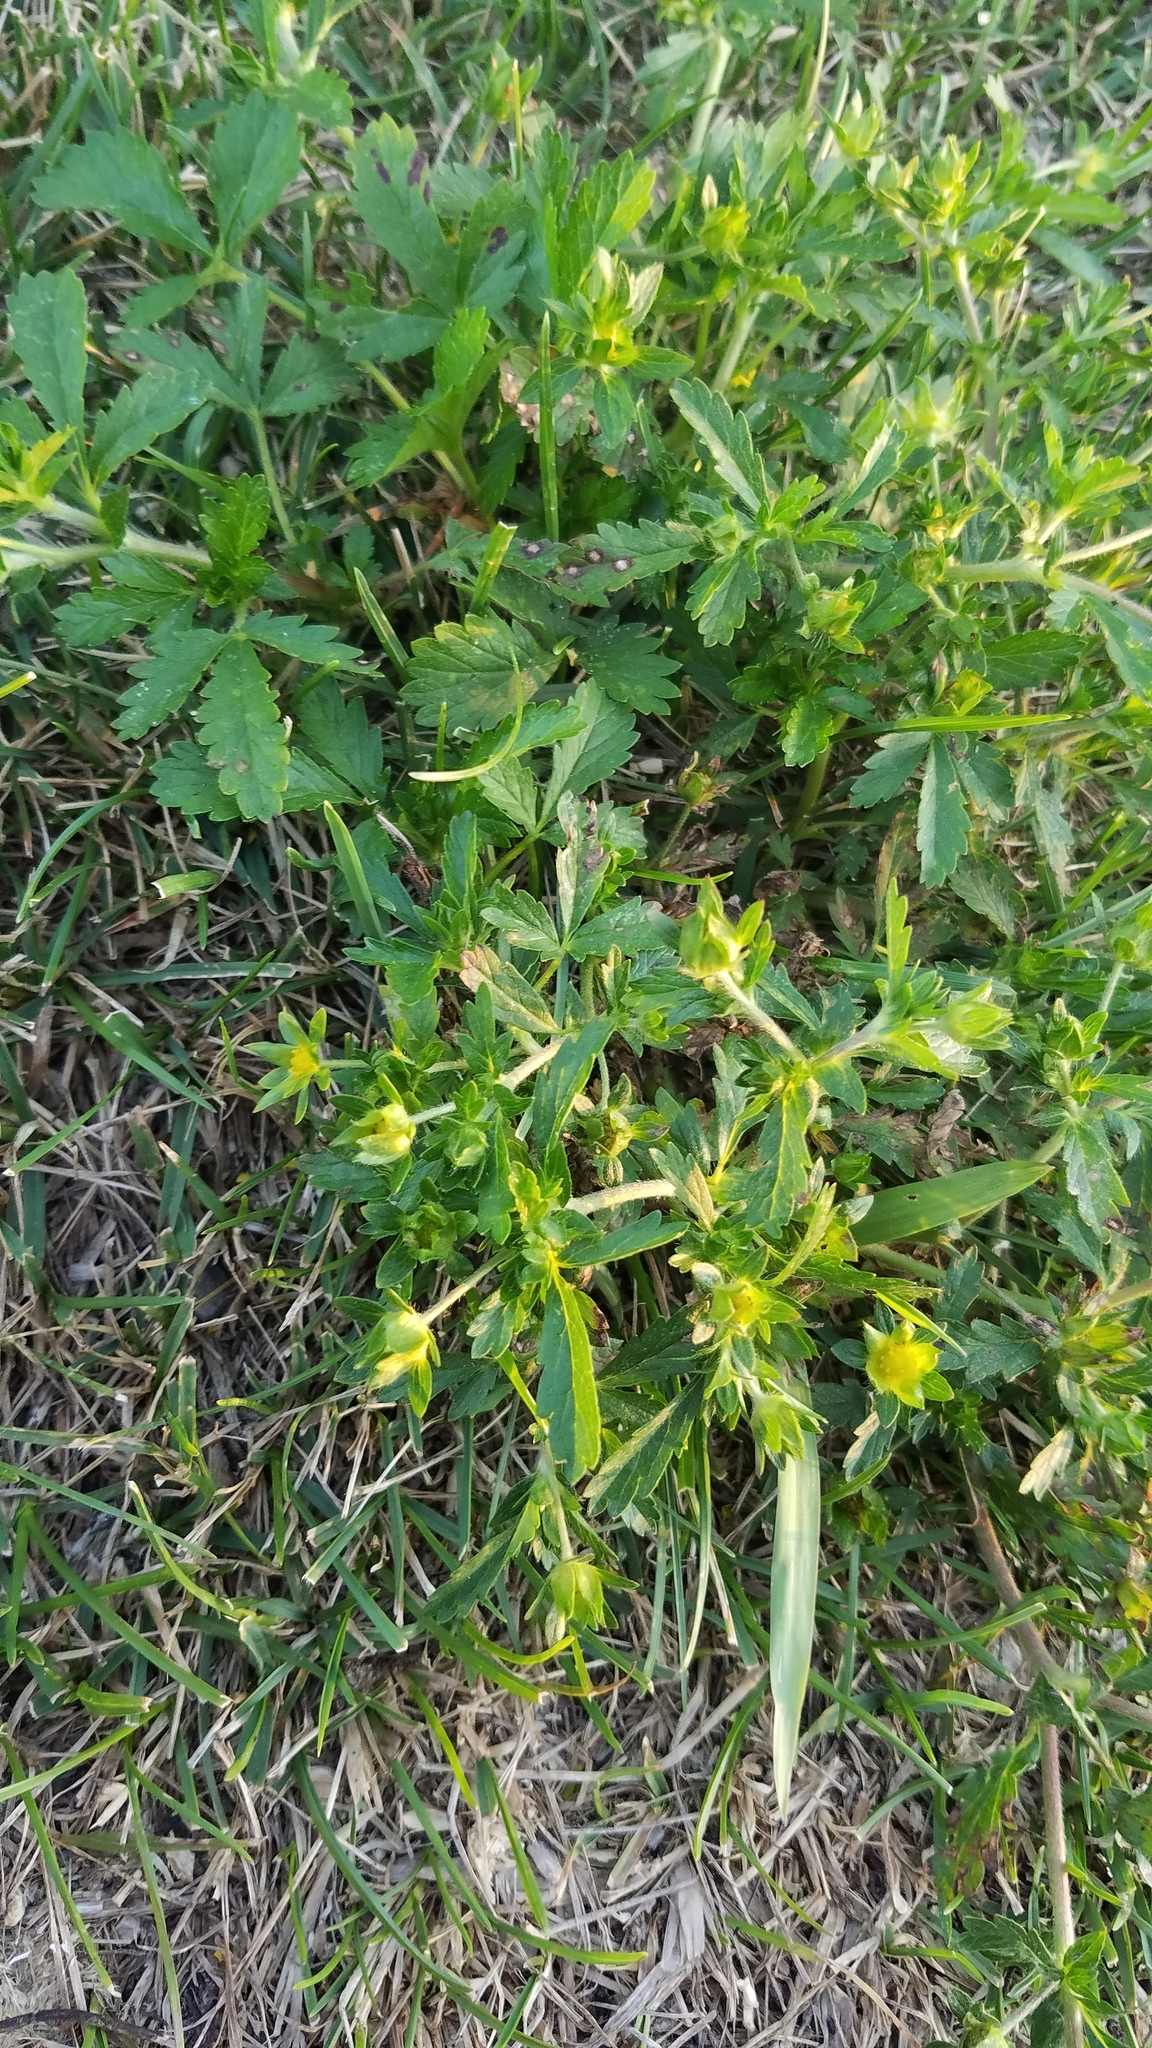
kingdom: Plantae
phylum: Tracheophyta
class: Magnoliopsida
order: Rosales
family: Rosaceae
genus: Potentilla
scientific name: Potentilla norvegica
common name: Ternate-leaved cinquefoil
